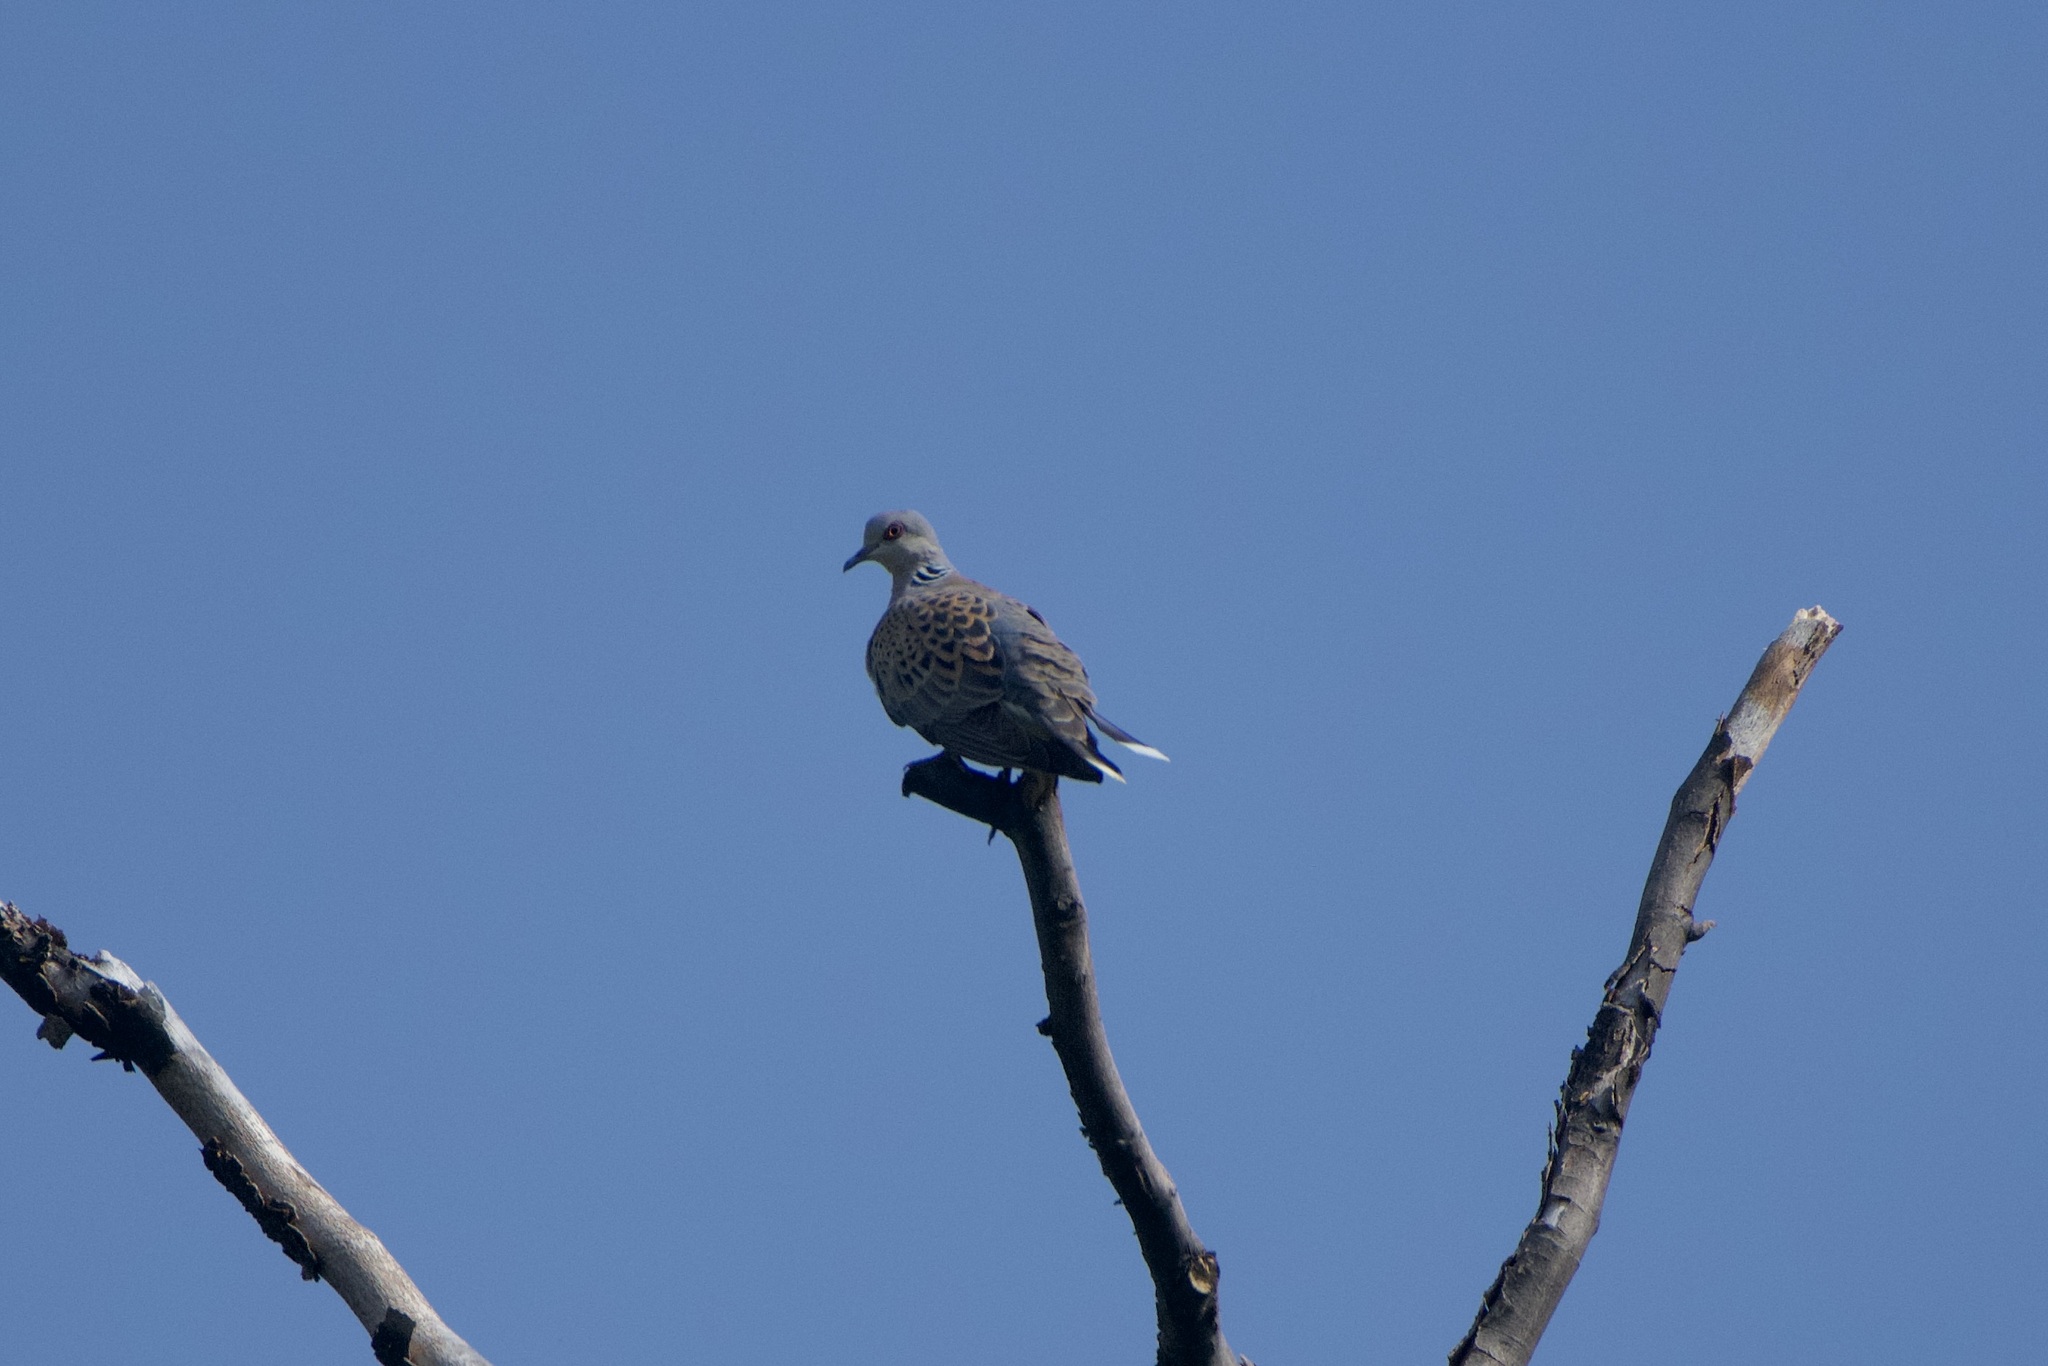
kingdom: Animalia
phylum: Chordata
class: Aves
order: Columbiformes
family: Columbidae
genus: Streptopelia
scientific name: Streptopelia turtur
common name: European turtle dove
